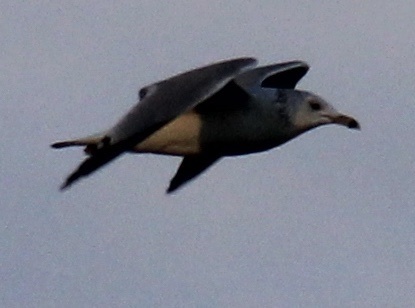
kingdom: Animalia
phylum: Chordata
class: Aves
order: Charadriiformes
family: Laridae
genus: Larus
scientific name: Larus delawarensis
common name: Ring-billed gull
